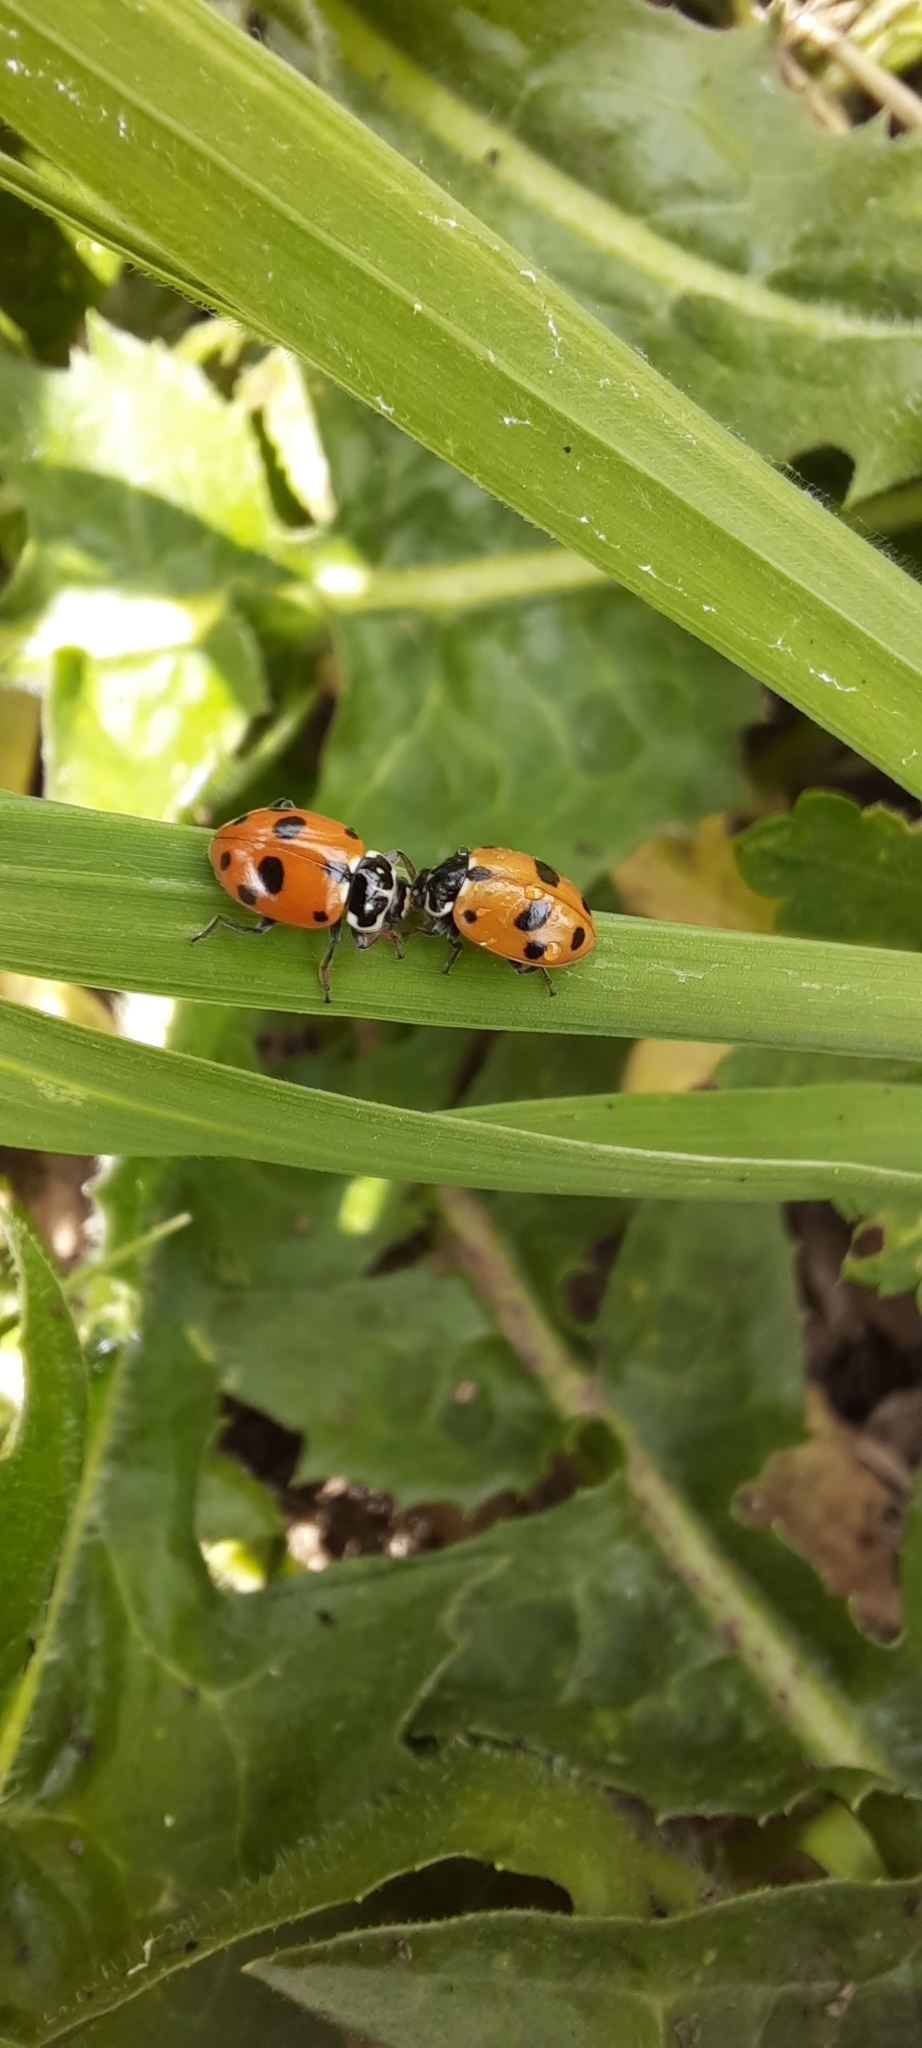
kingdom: Animalia
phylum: Arthropoda
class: Insecta
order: Coleoptera
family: Coccinellidae
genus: Hippodamia
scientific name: Hippodamia variegata
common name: Ladybird beetle
